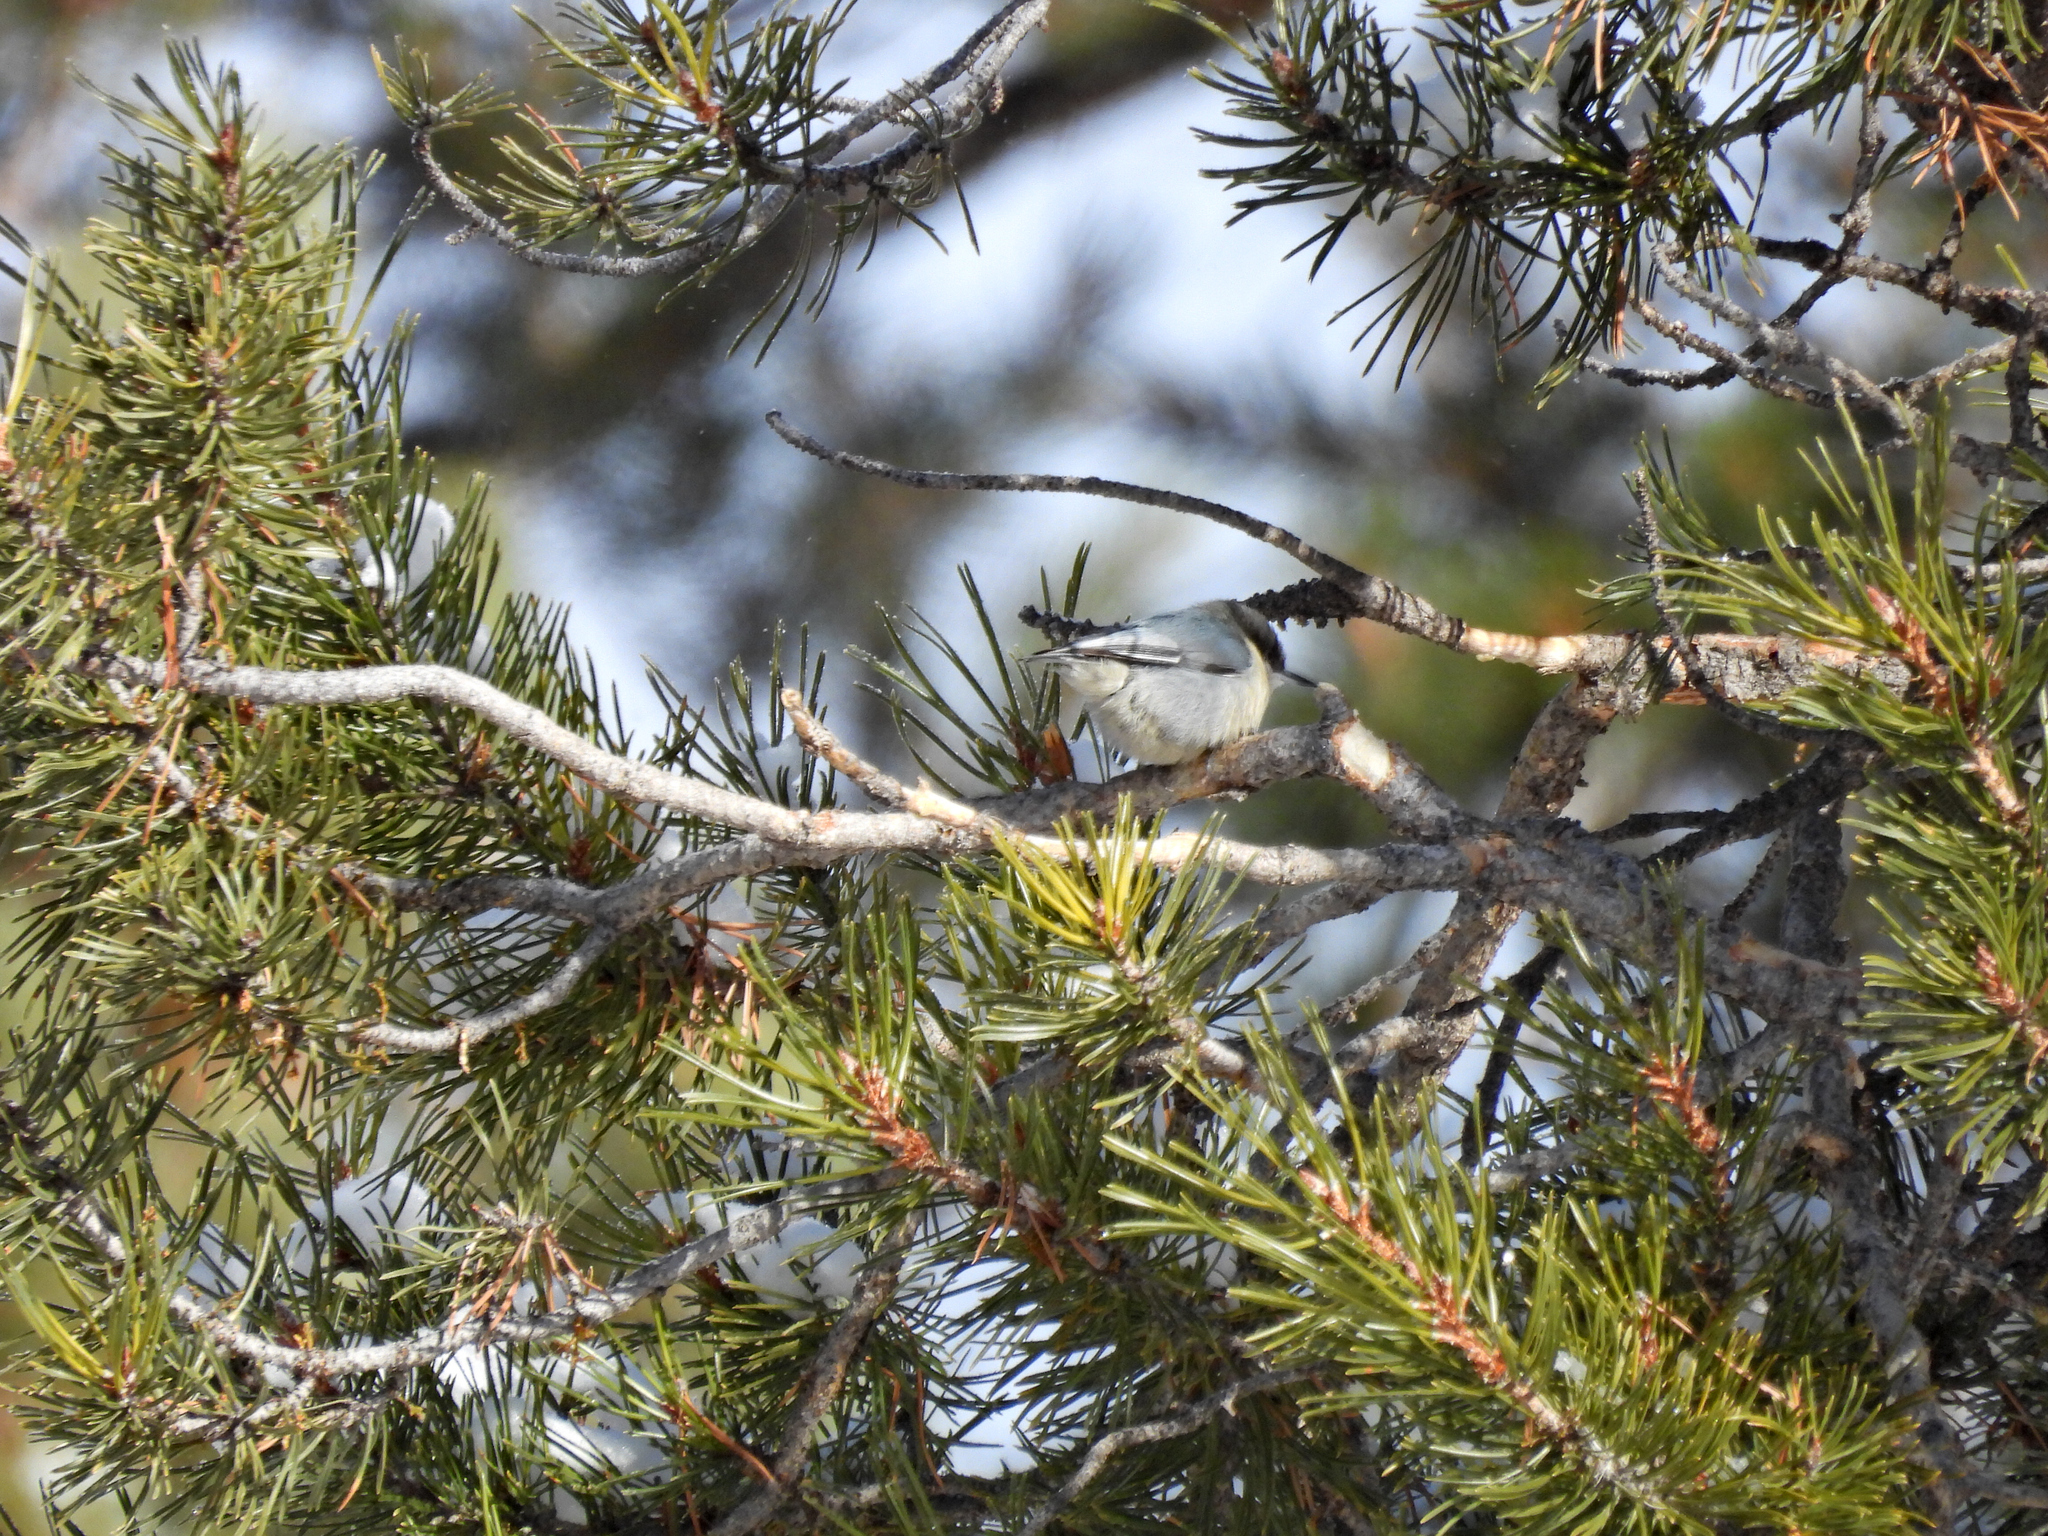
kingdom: Animalia
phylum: Chordata
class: Aves
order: Passeriformes
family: Sittidae
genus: Sitta
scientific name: Sitta pygmaea
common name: Pygmy nuthatch
